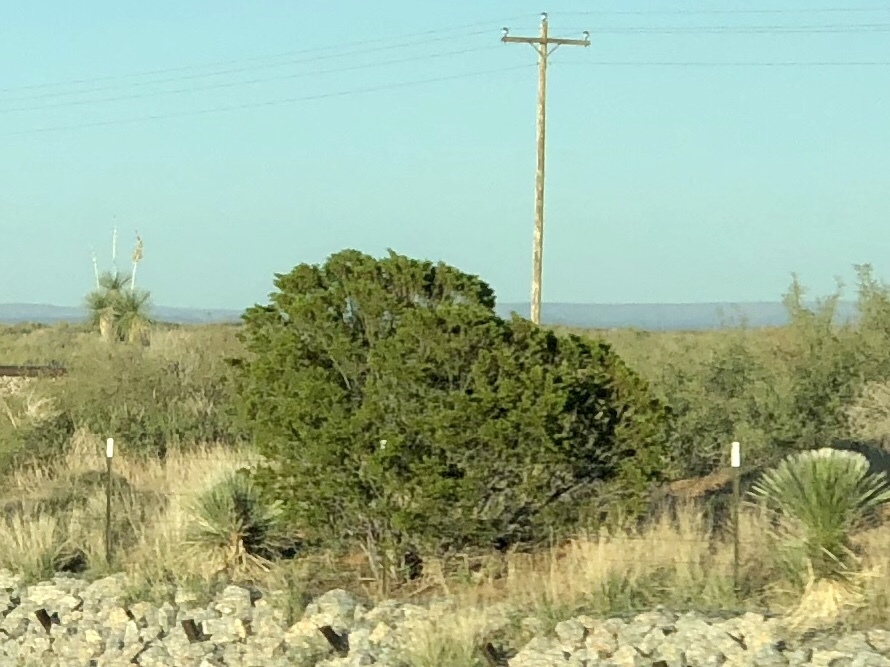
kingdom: Plantae
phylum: Tracheophyta
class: Magnoliopsida
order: Zygophyllales
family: Zygophyllaceae
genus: Larrea
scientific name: Larrea tridentata
